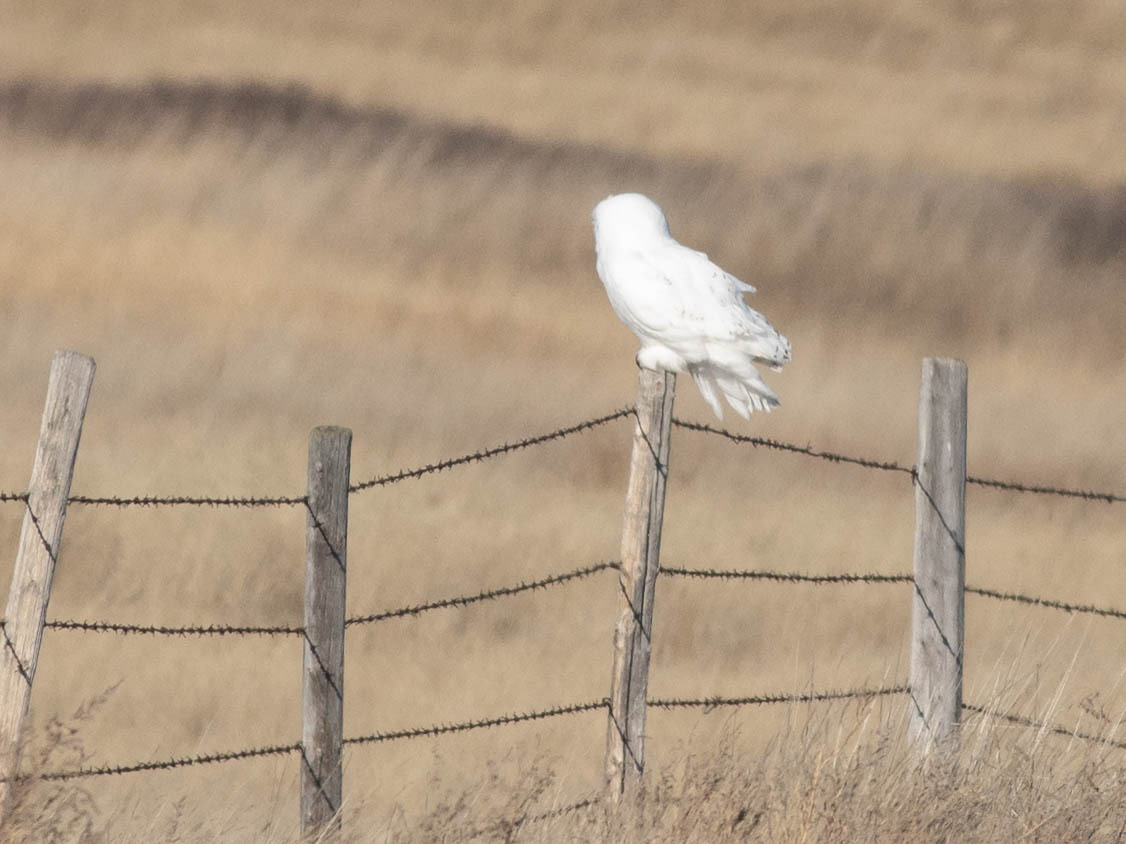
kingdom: Animalia
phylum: Chordata
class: Aves
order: Strigiformes
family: Strigidae
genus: Bubo
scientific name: Bubo scandiacus
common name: Snowy owl
